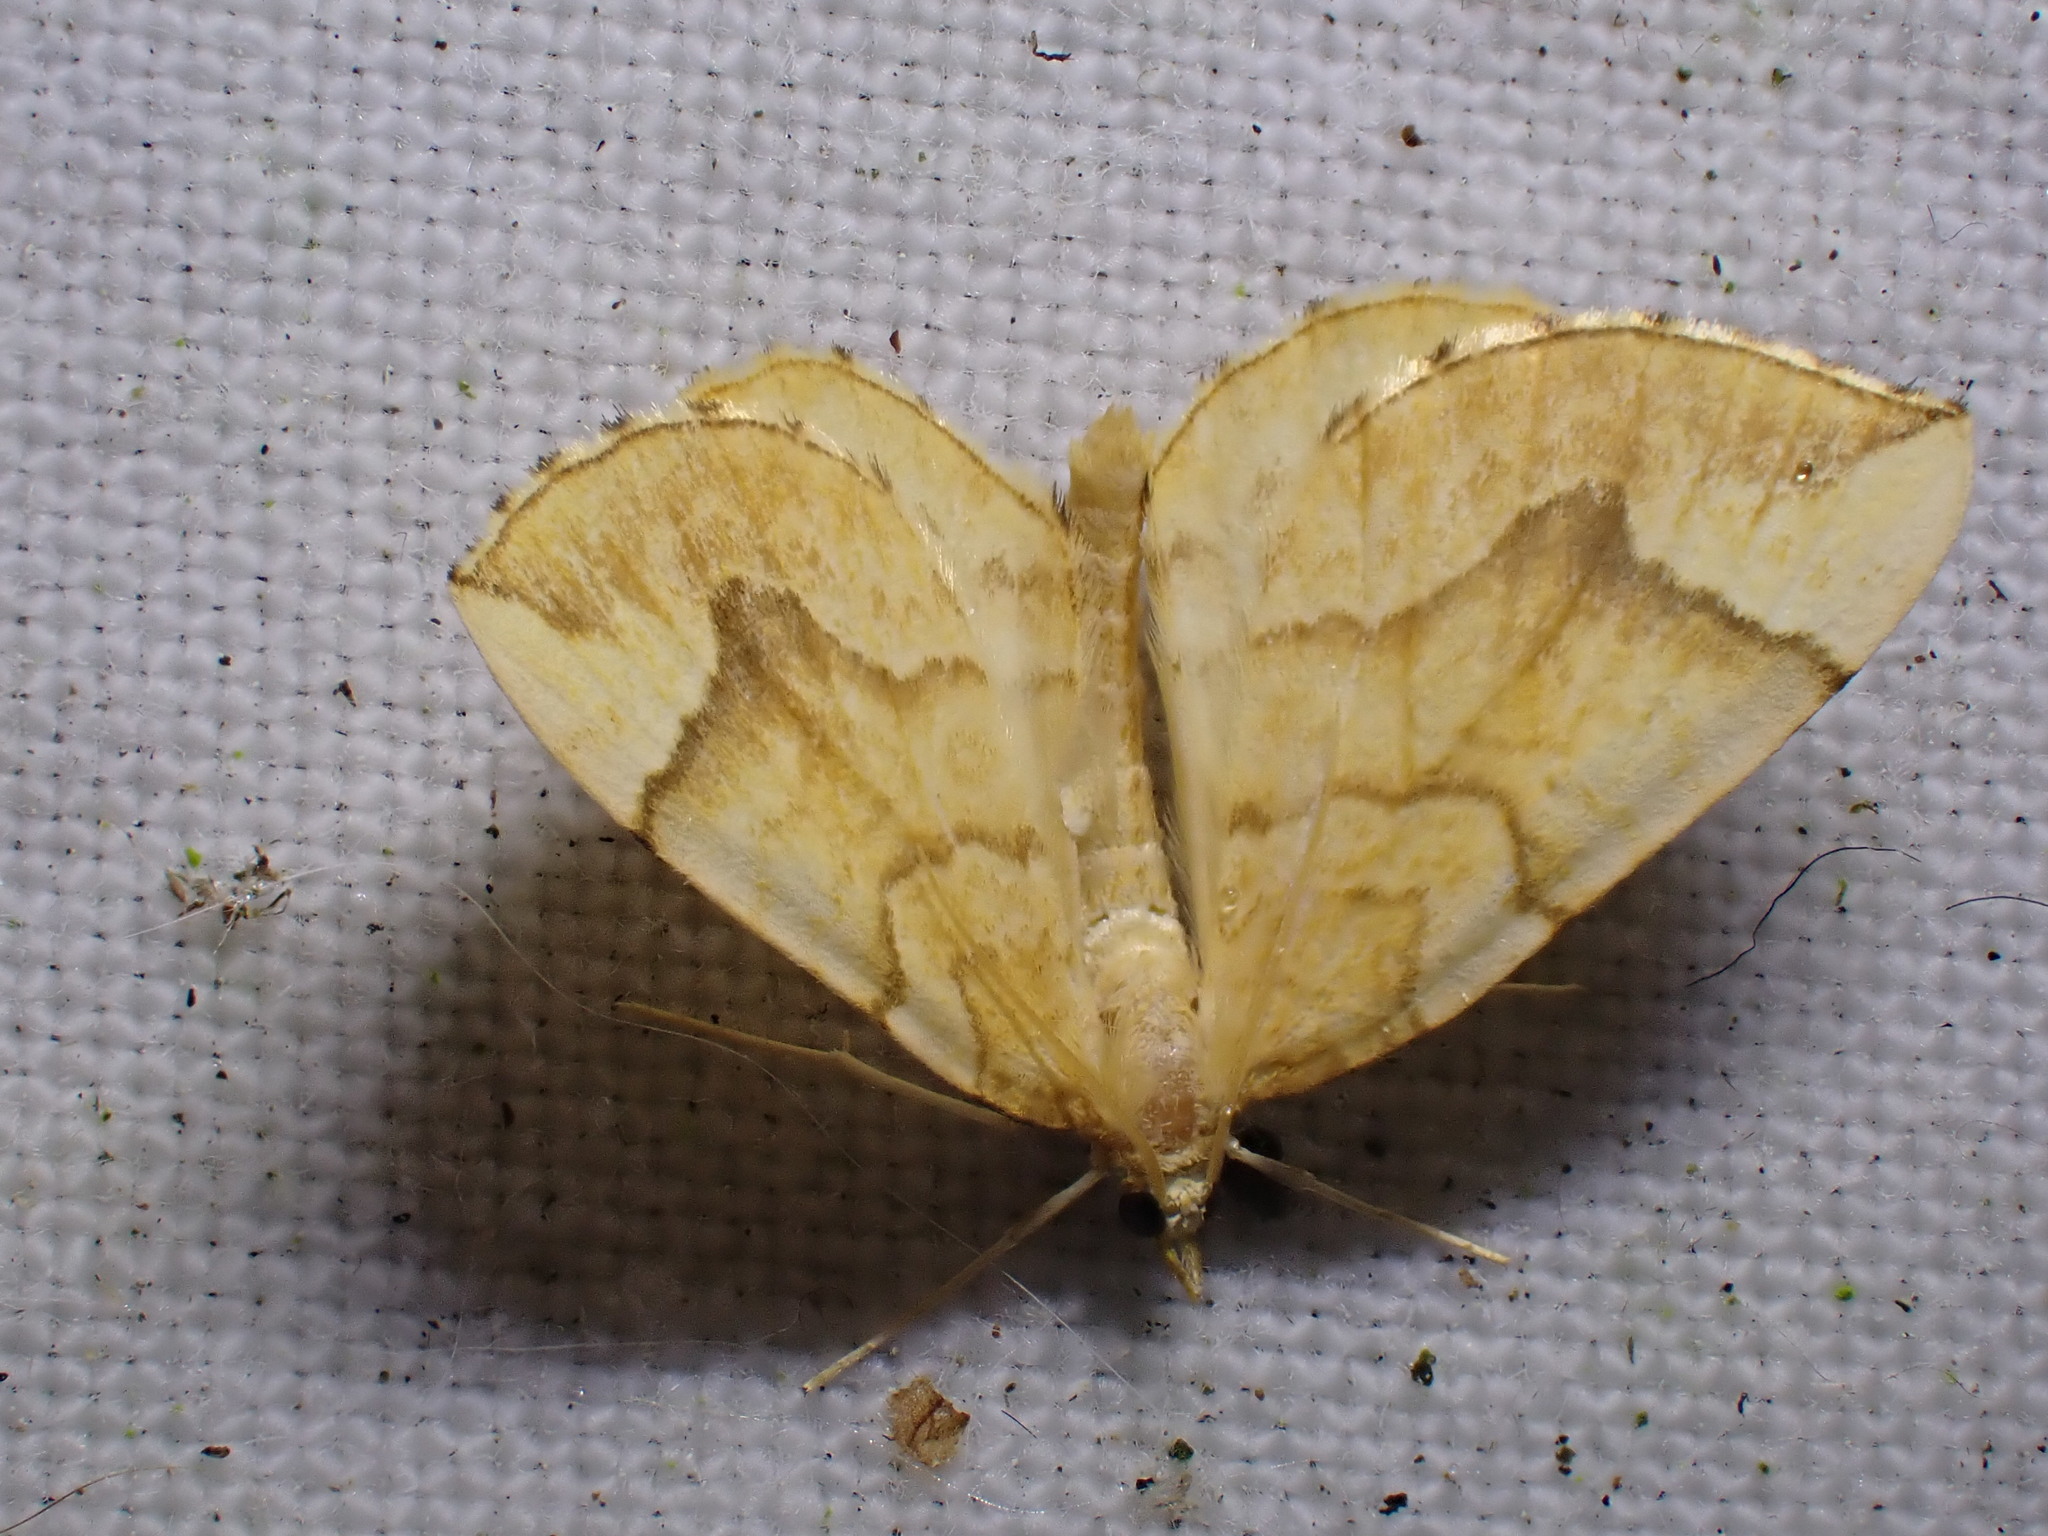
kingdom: Animalia
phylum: Arthropoda
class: Insecta
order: Lepidoptera
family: Geometridae
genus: Eulithis
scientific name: Eulithis mellinata
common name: Spinach
